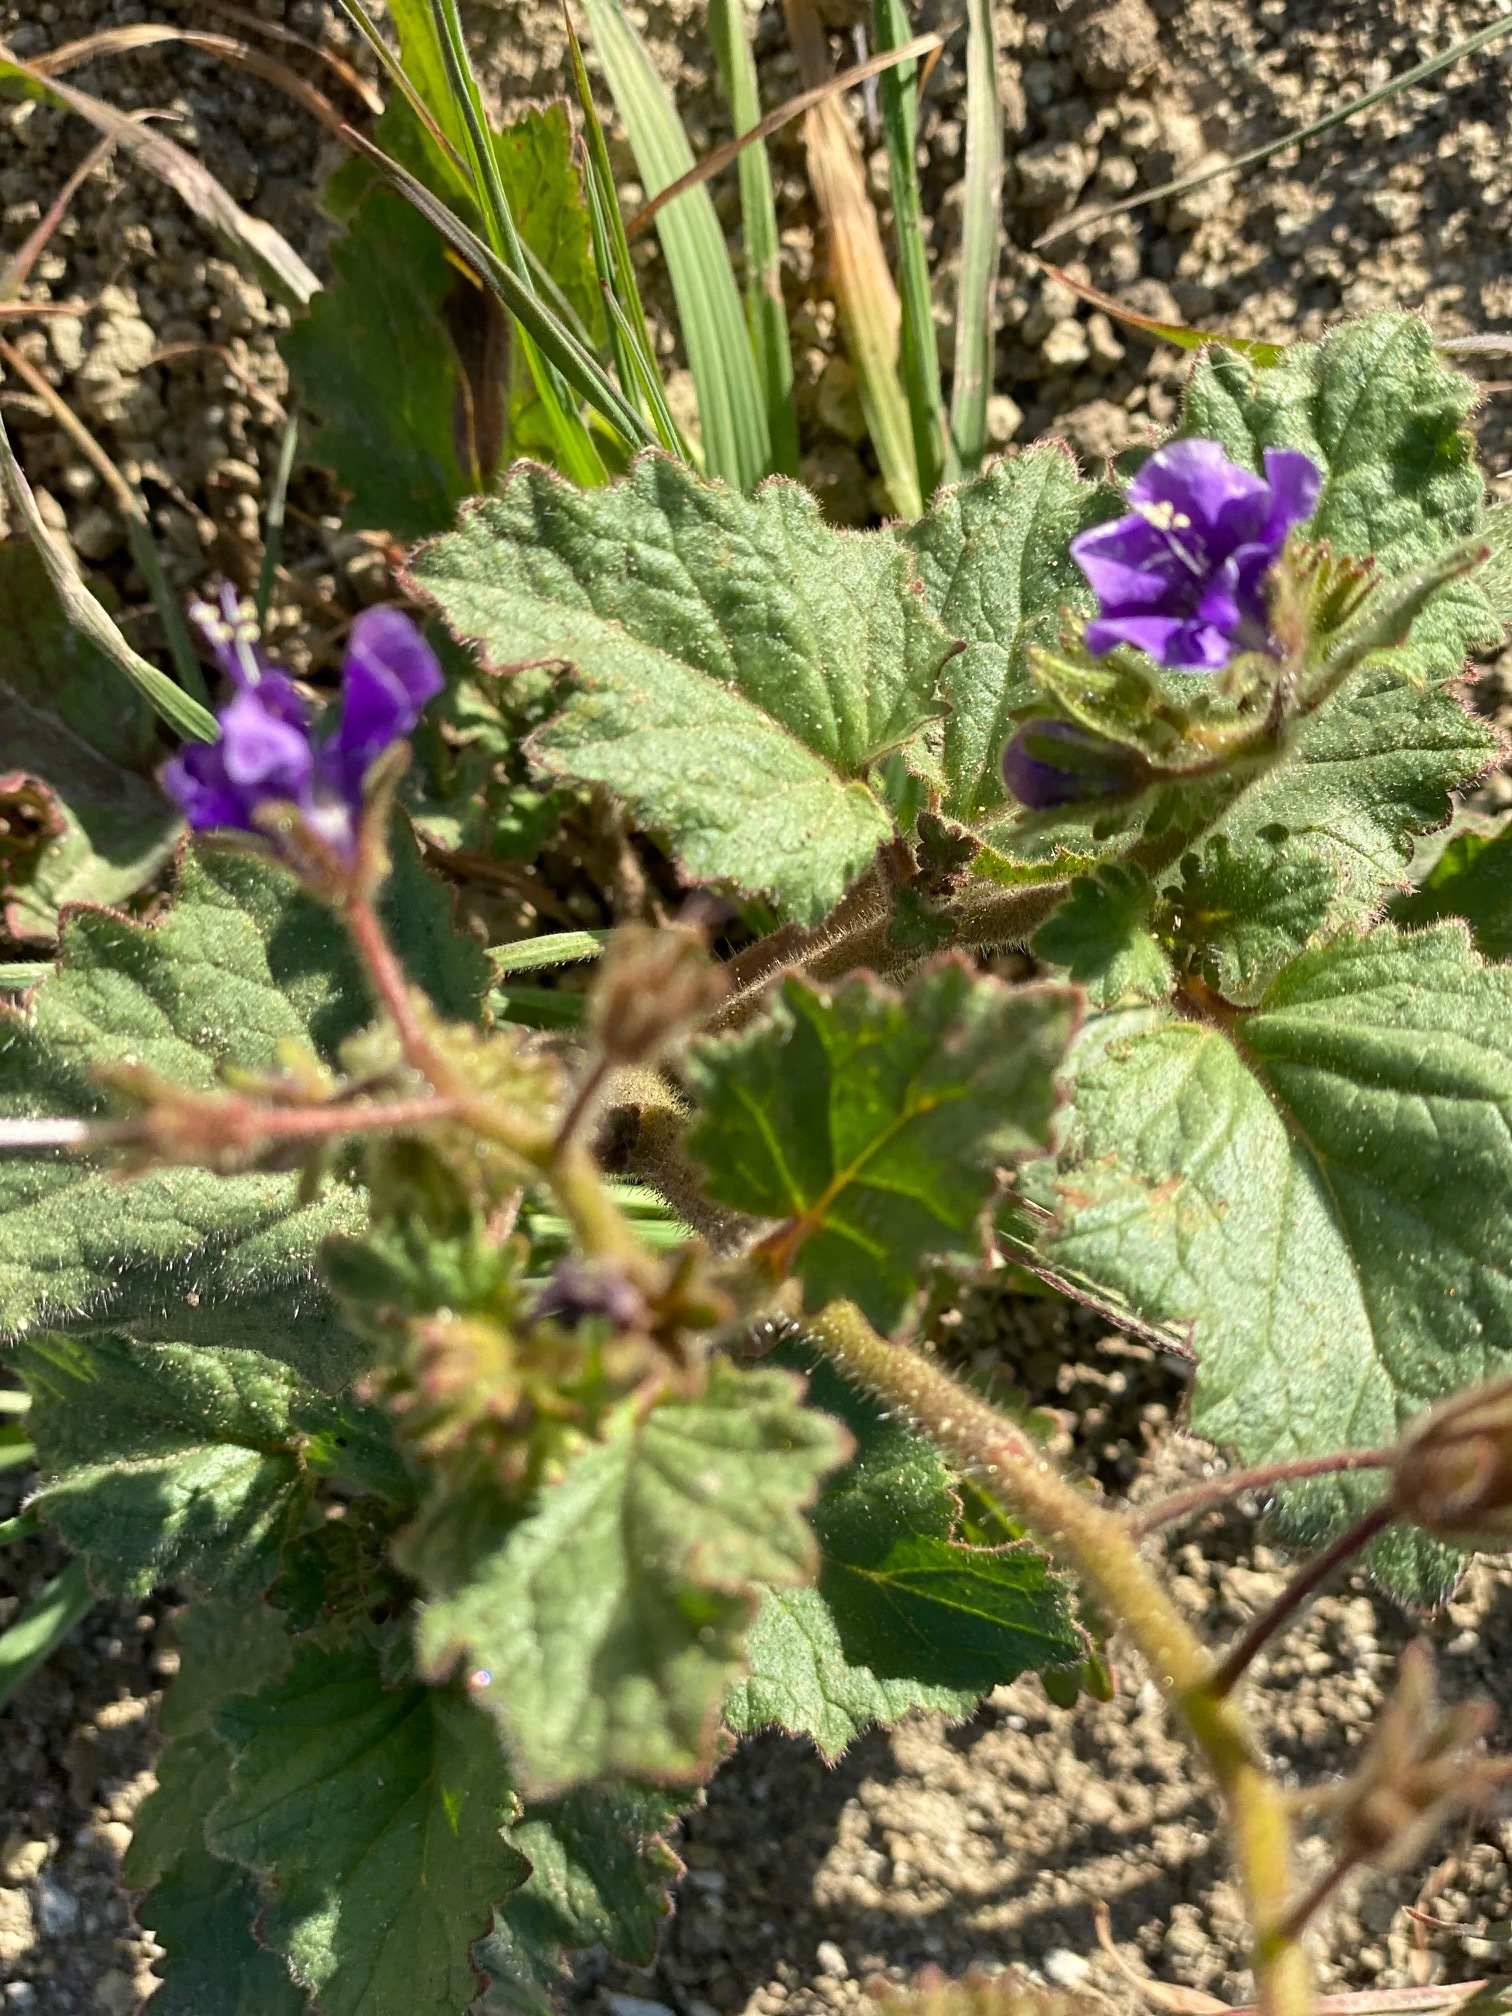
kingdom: Plantae
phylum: Tracheophyta
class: Magnoliopsida
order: Boraginales
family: Hydrophyllaceae
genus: Phacelia
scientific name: Phacelia parryi
